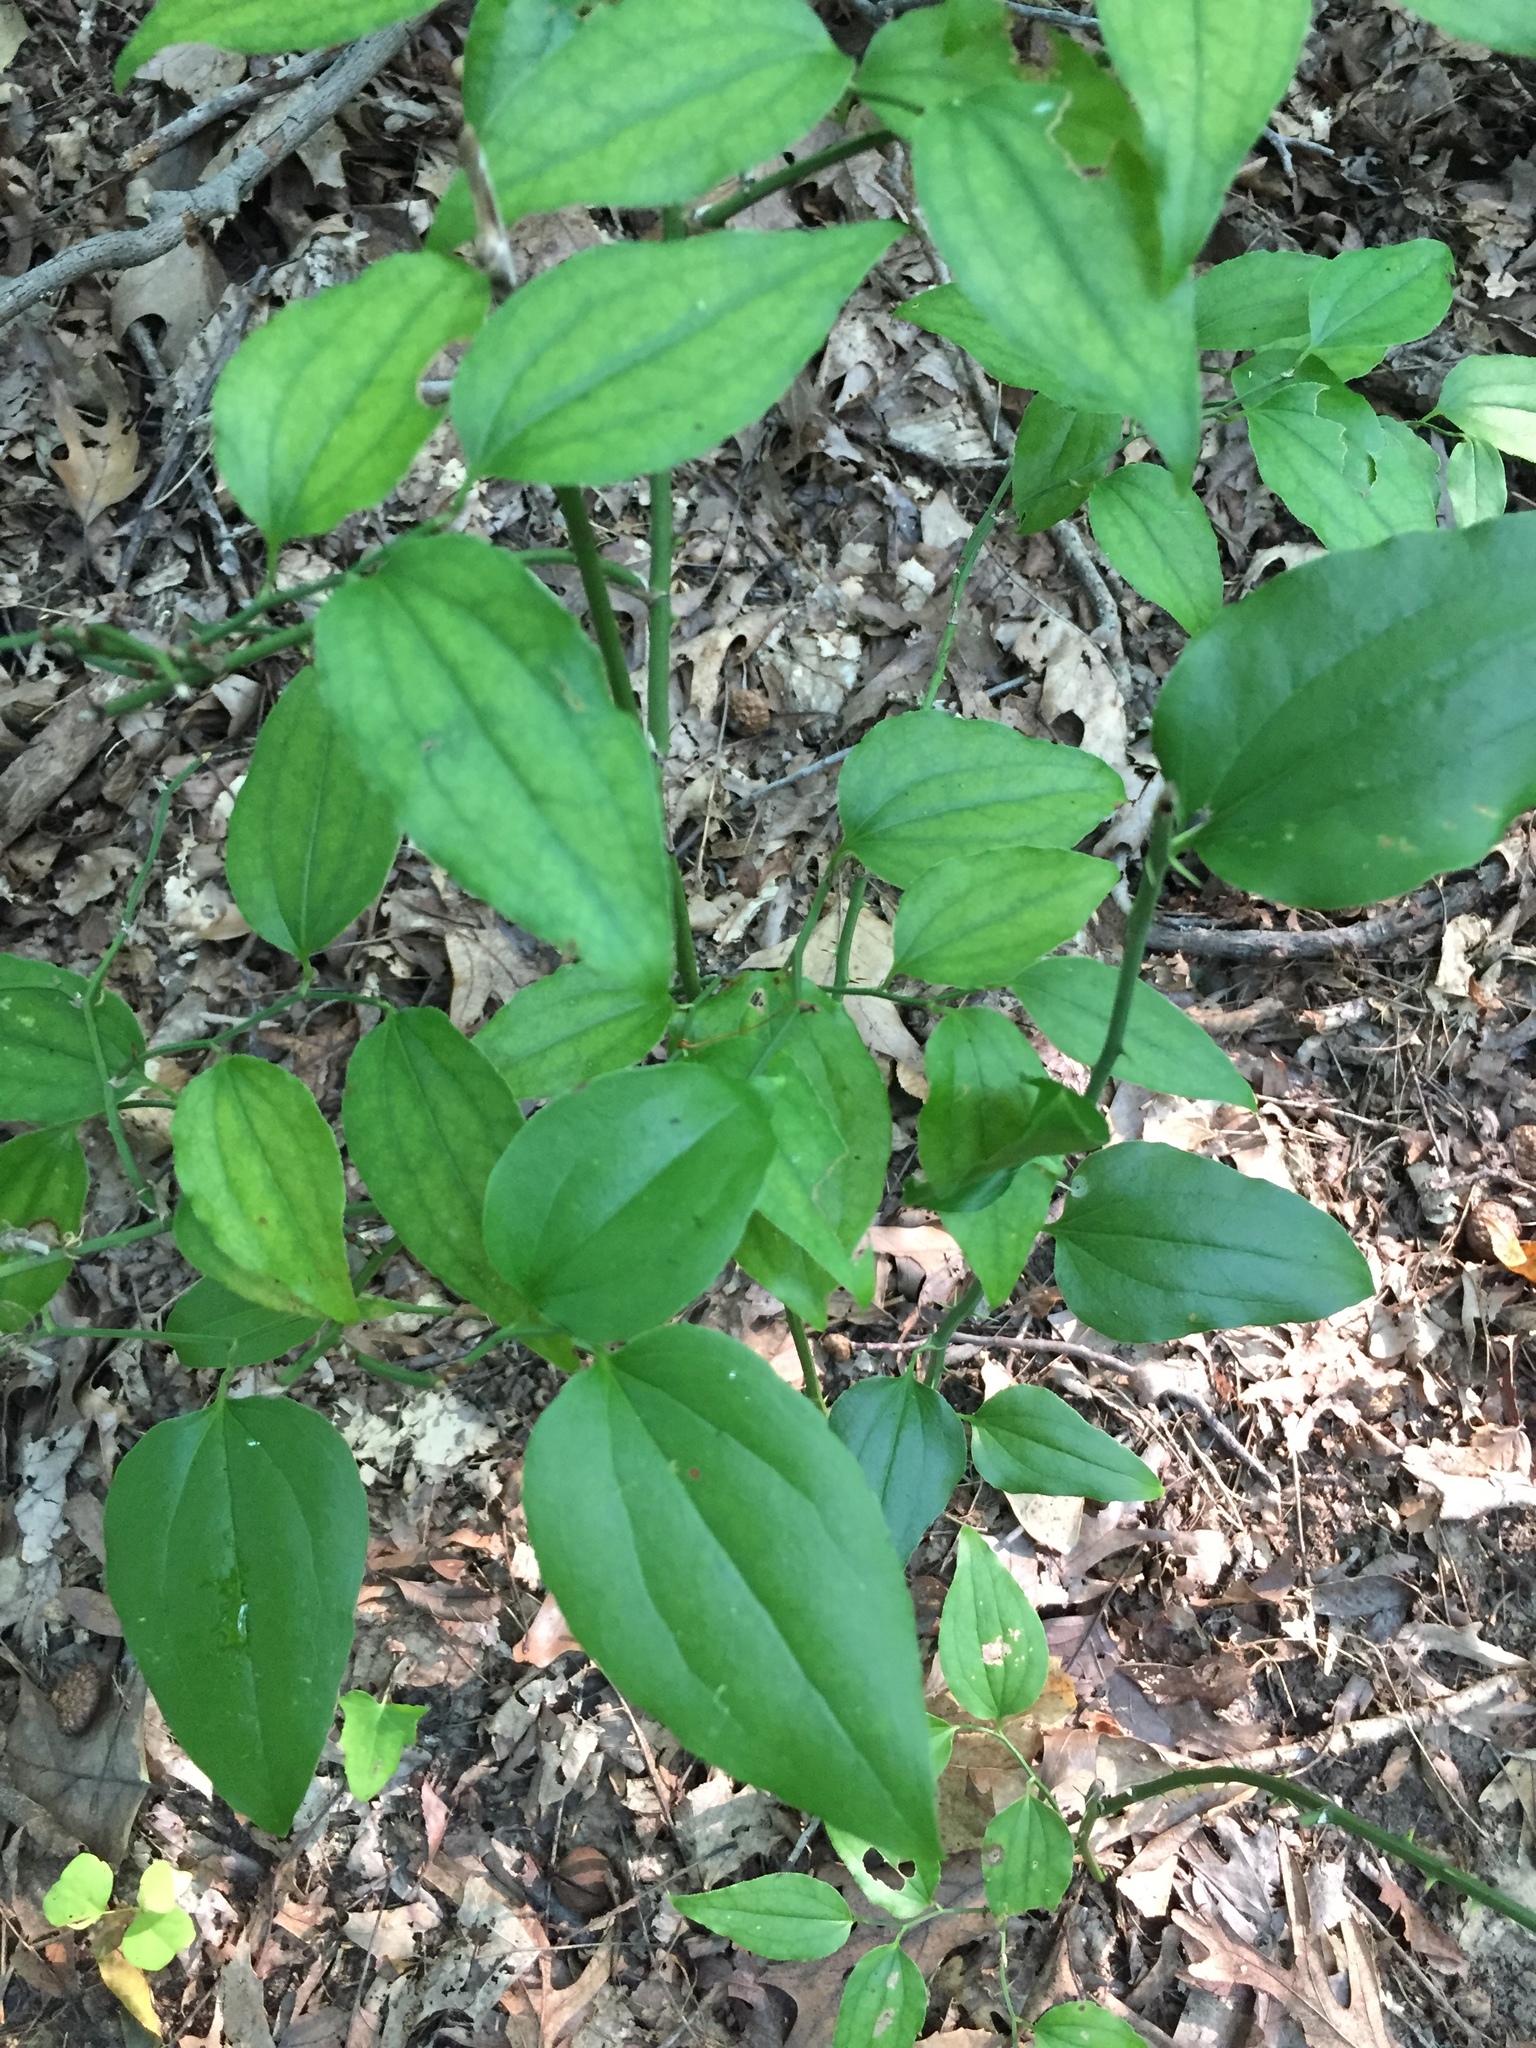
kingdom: Plantae
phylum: Tracheophyta
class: Liliopsida
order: Liliales
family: Smilacaceae
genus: Smilax
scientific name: Smilax rotundifolia
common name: Bullbriar
